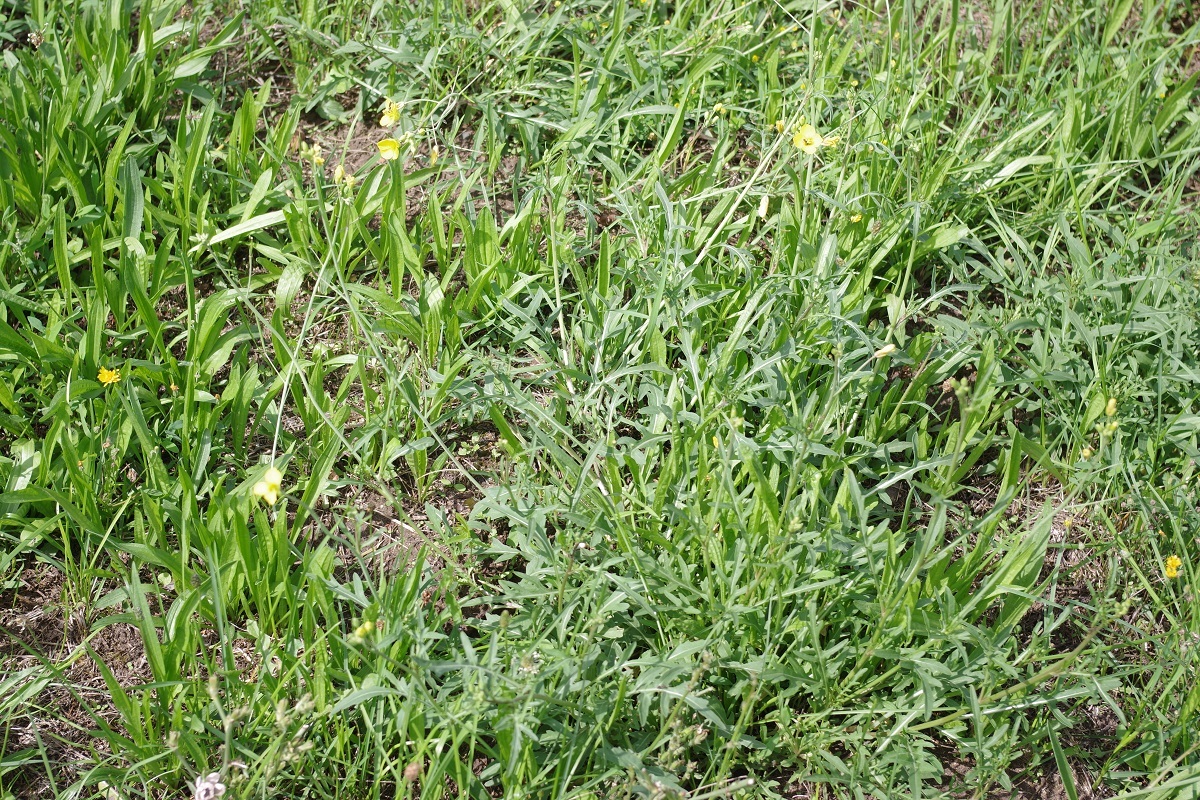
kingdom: Plantae
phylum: Tracheophyta
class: Magnoliopsida
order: Brassicales
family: Brassicaceae
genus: Diplotaxis
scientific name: Diplotaxis tenuifolia
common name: Perennial wall-rocket
